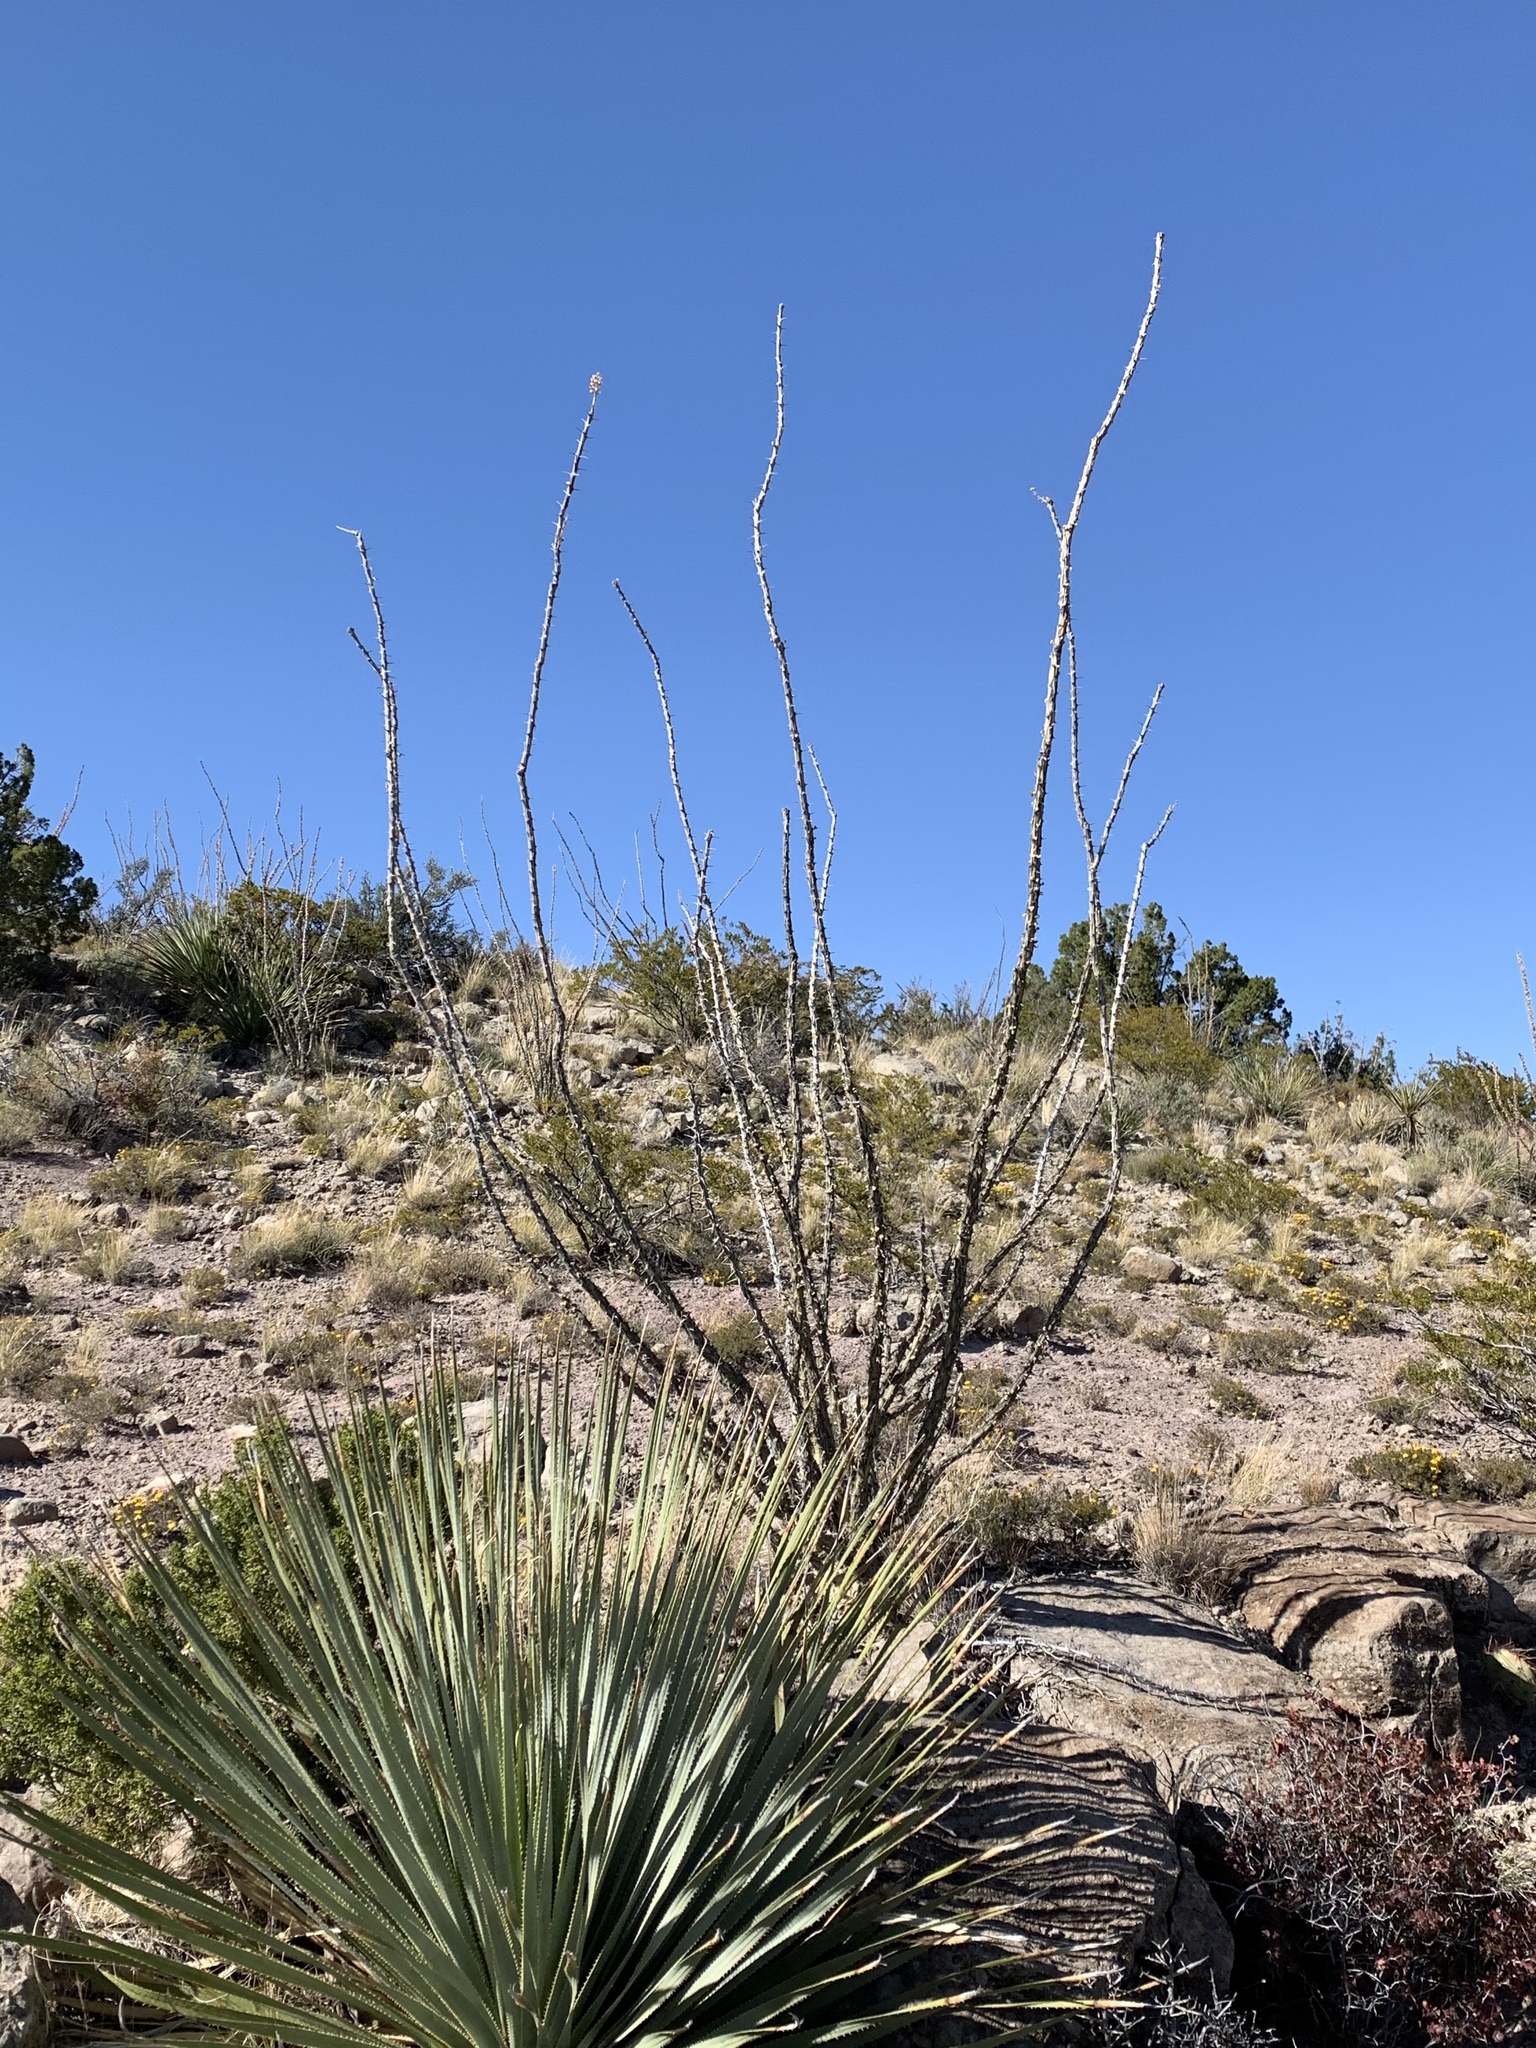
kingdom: Plantae
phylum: Tracheophyta
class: Magnoliopsida
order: Ericales
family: Fouquieriaceae
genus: Fouquieria
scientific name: Fouquieria splendens
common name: Vine-cactus
